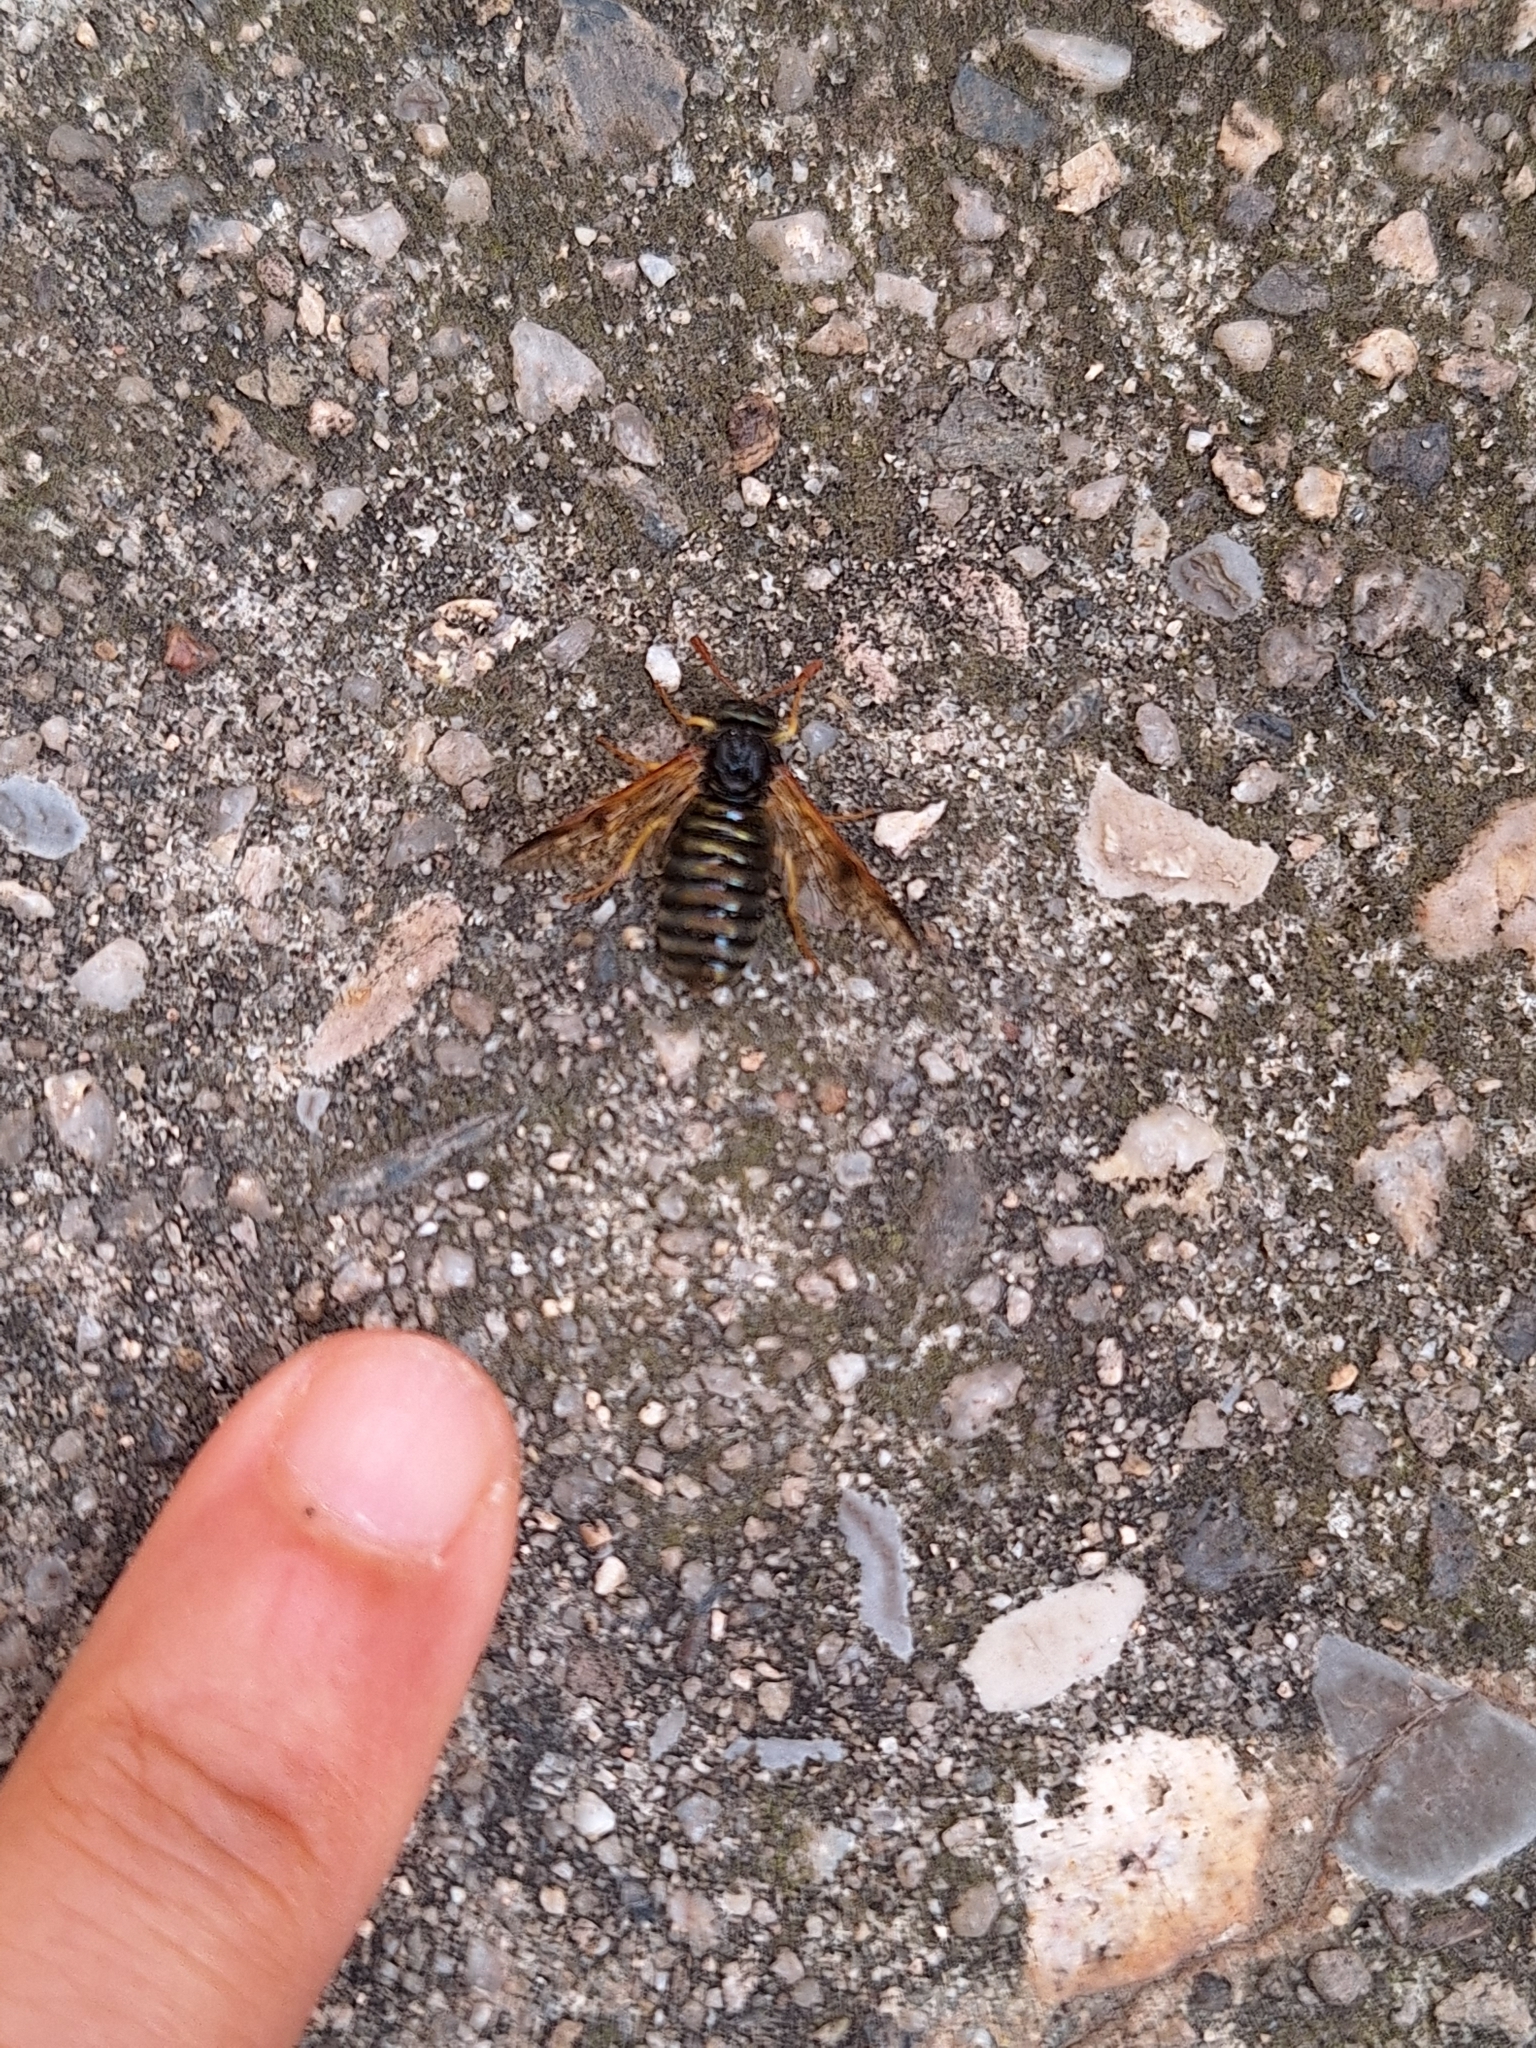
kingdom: Animalia
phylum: Arthropoda
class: Insecta
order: Hymenoptera
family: Cimbicidae
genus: Abia
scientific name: Abia nitens
